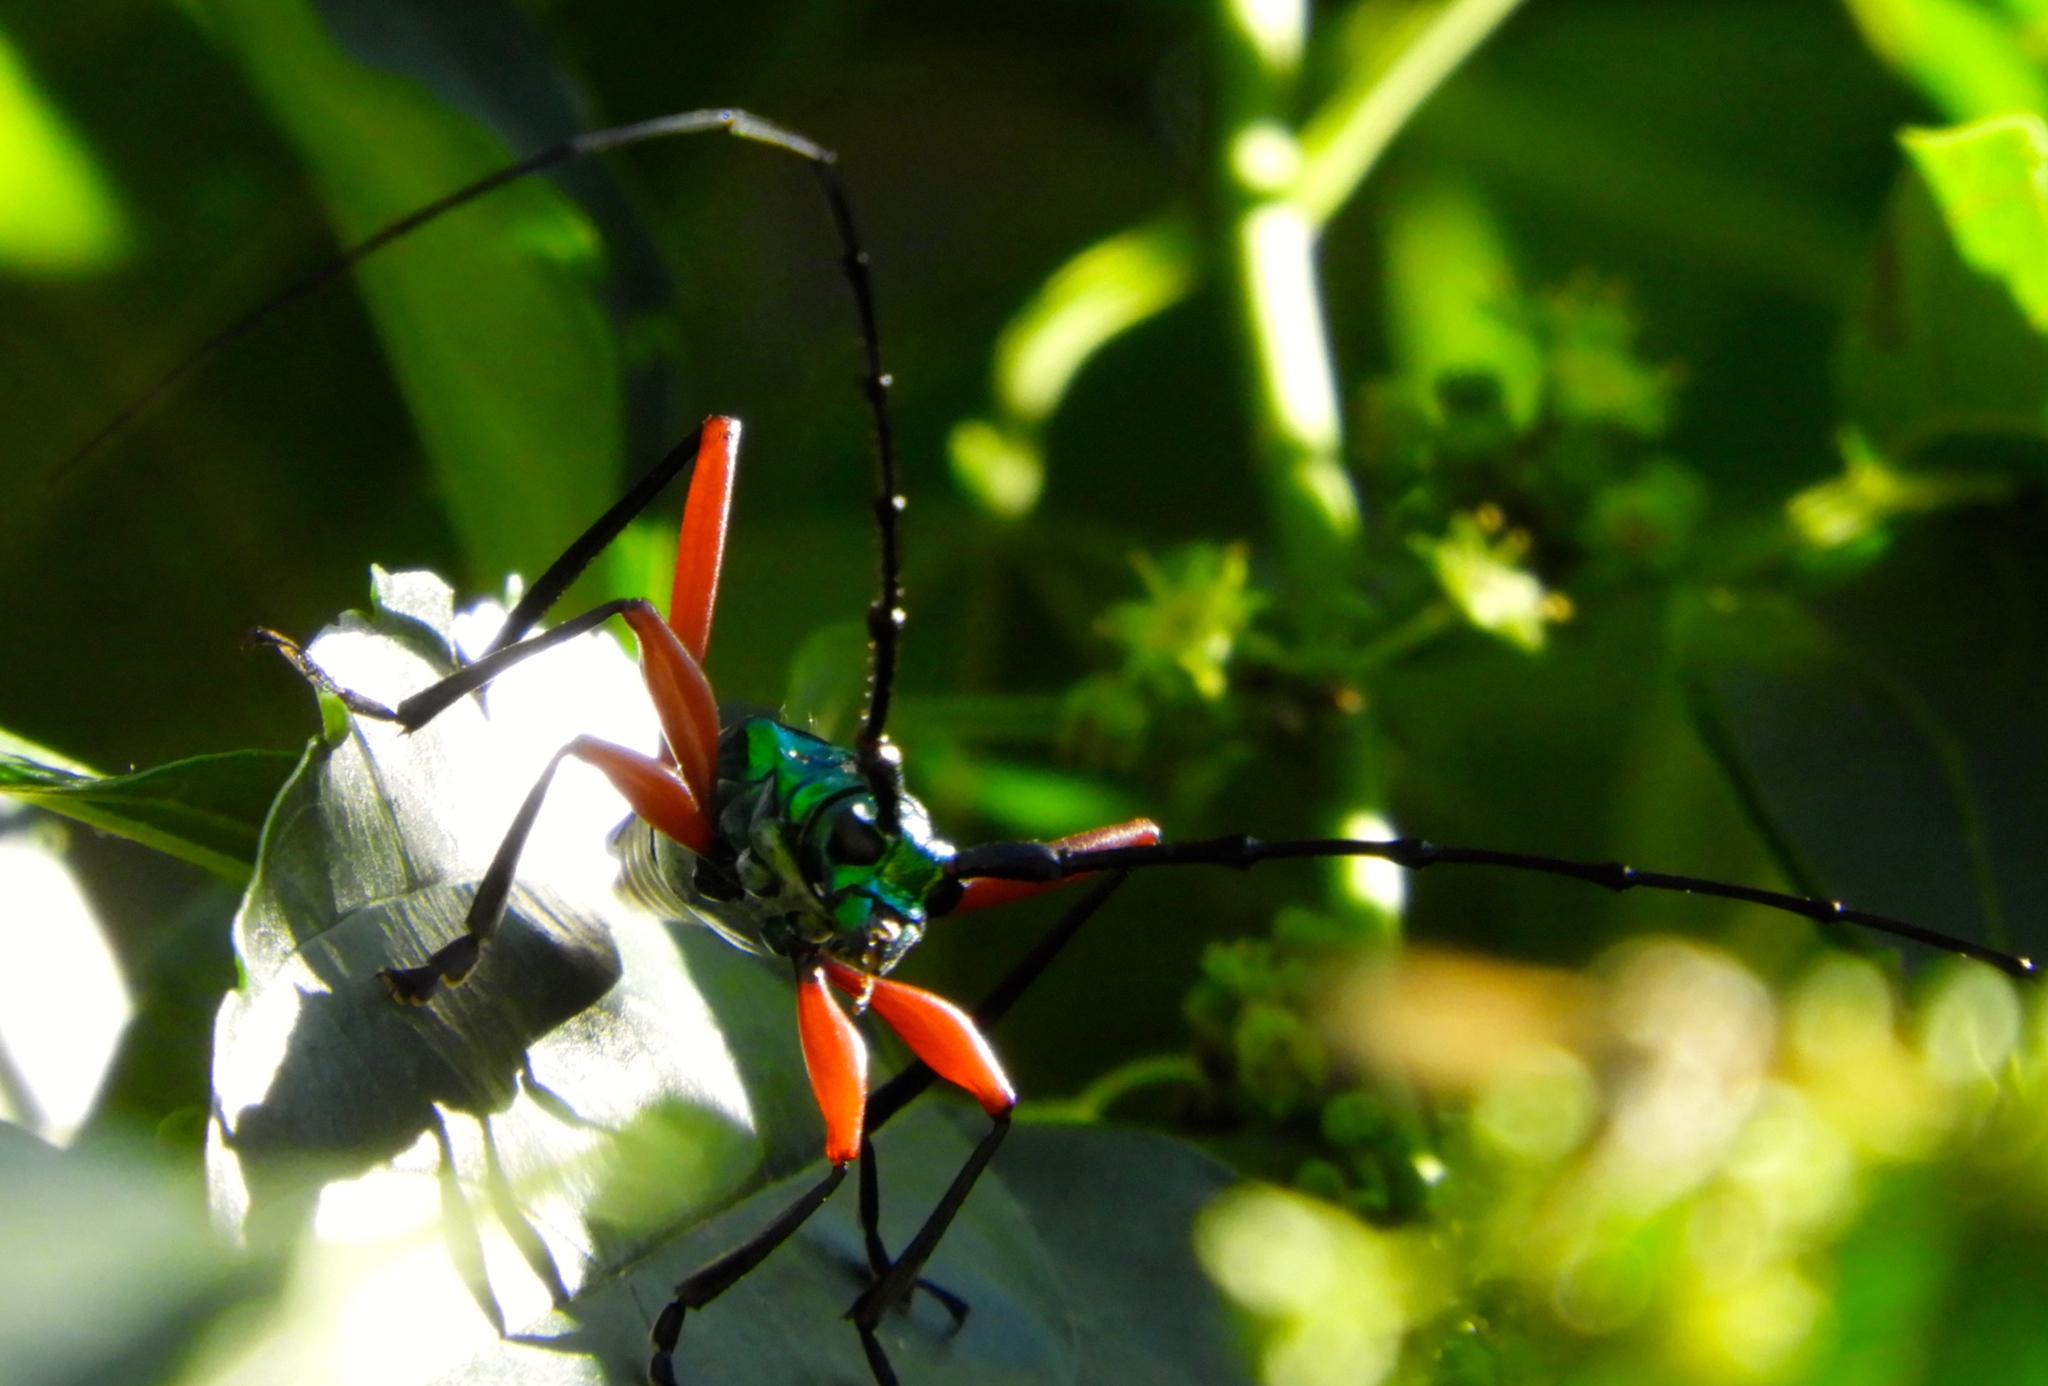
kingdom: Animalia
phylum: Arthropoda
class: Insecta
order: Coleoptera
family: Cerambycidae
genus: Plinthocoelium
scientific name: Plinthocoelium chilensis
